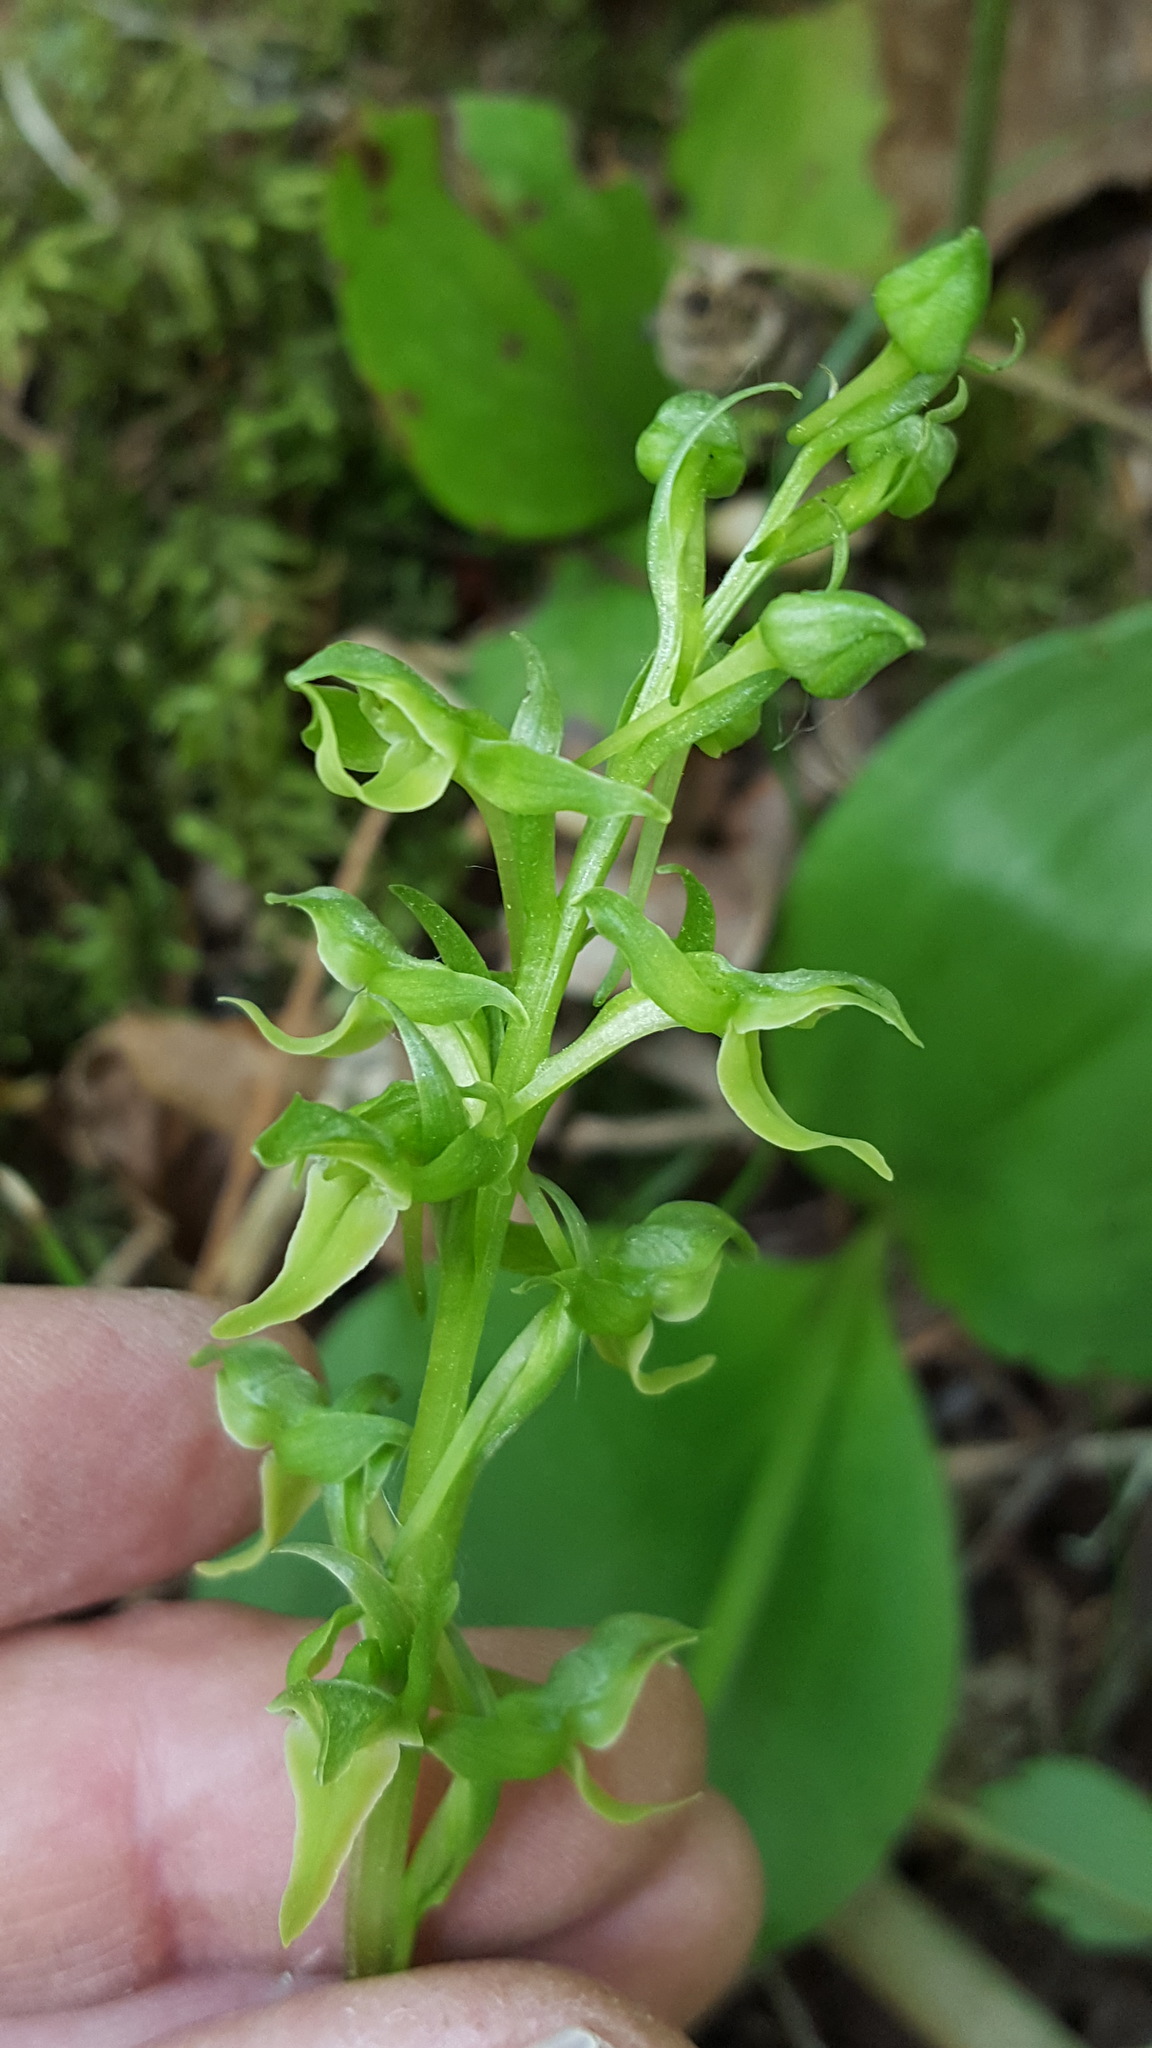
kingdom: Plantae
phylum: Tracheophyta
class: Liliopsida
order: Asparagales
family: Orchidaceae
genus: Platanthera
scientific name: Platanthera hookeri
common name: Hooker's orchid
